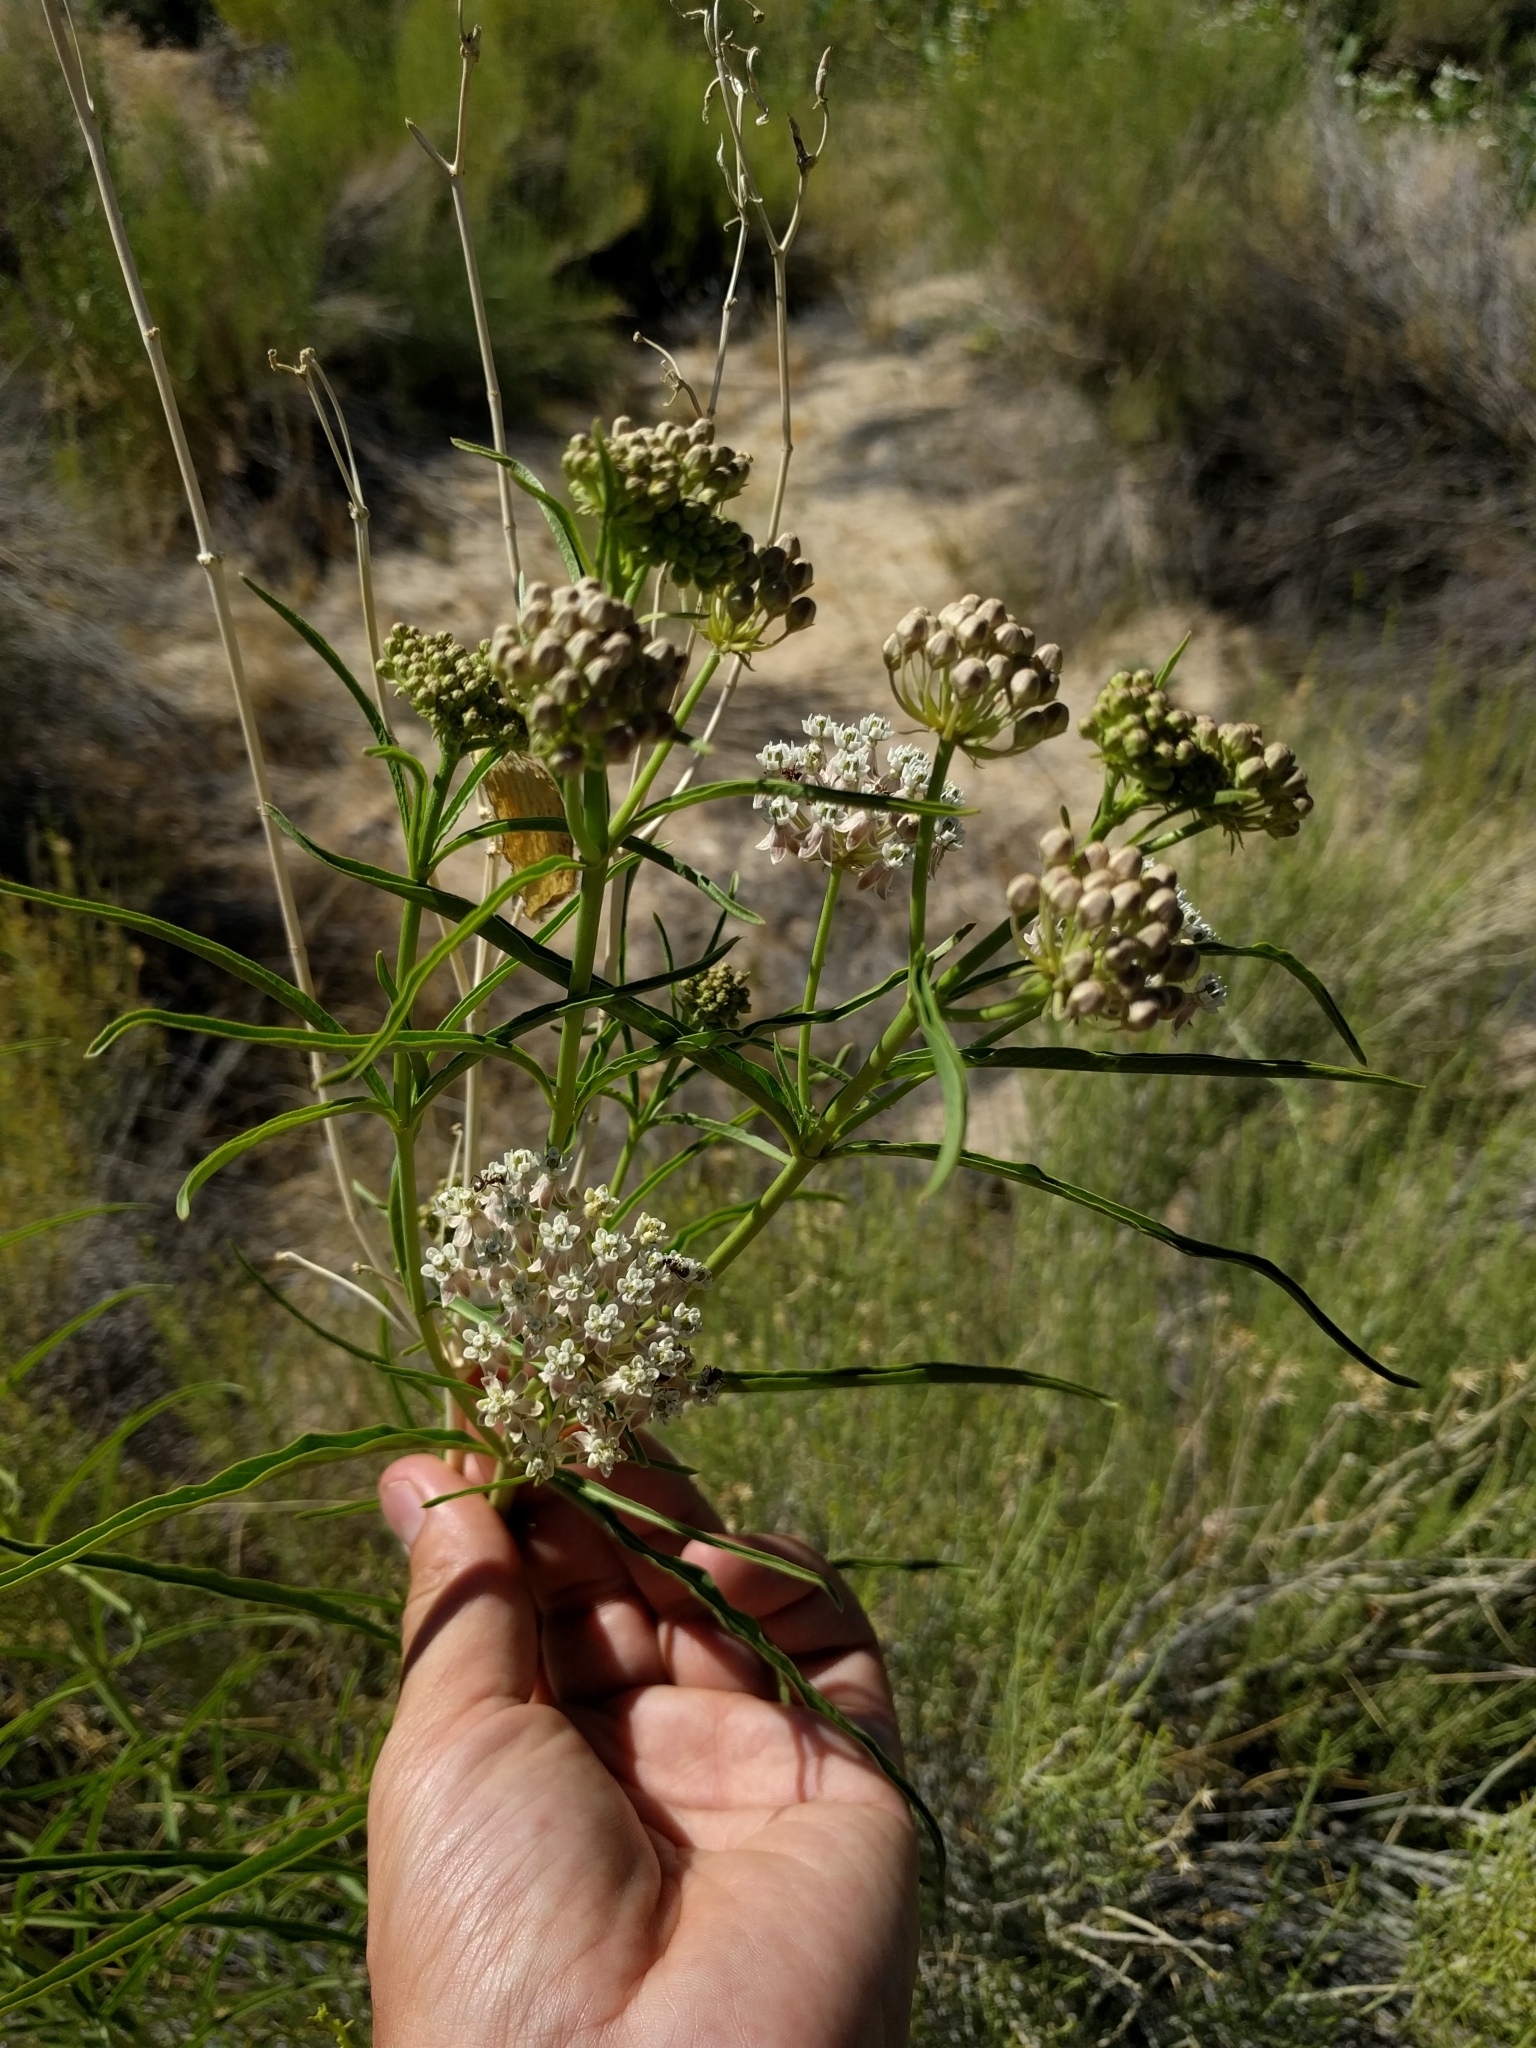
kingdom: Plantae
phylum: Tracheophyta
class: Magnoliopsida
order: Gentianales
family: Apocynaceae
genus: Asclepias
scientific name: Asclepias fascicularis
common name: Mexican milkweed
